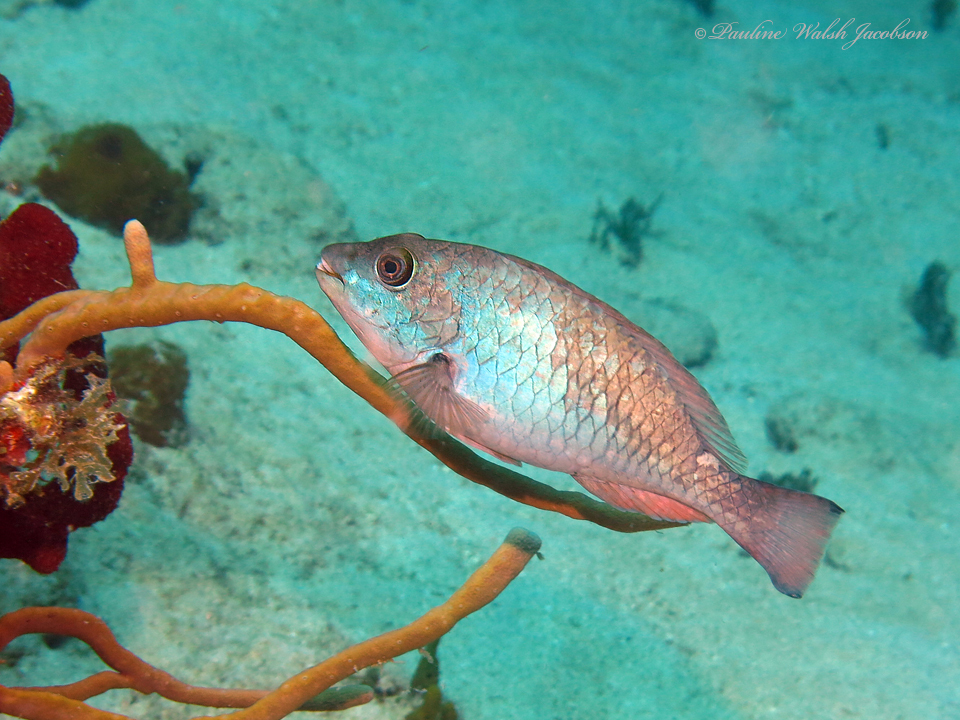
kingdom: Animalia
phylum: Chordata
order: Perciformes
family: Scaridae
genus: Sparisoma
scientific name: Sparisoma aurofrenatum
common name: Redband parrotfish
